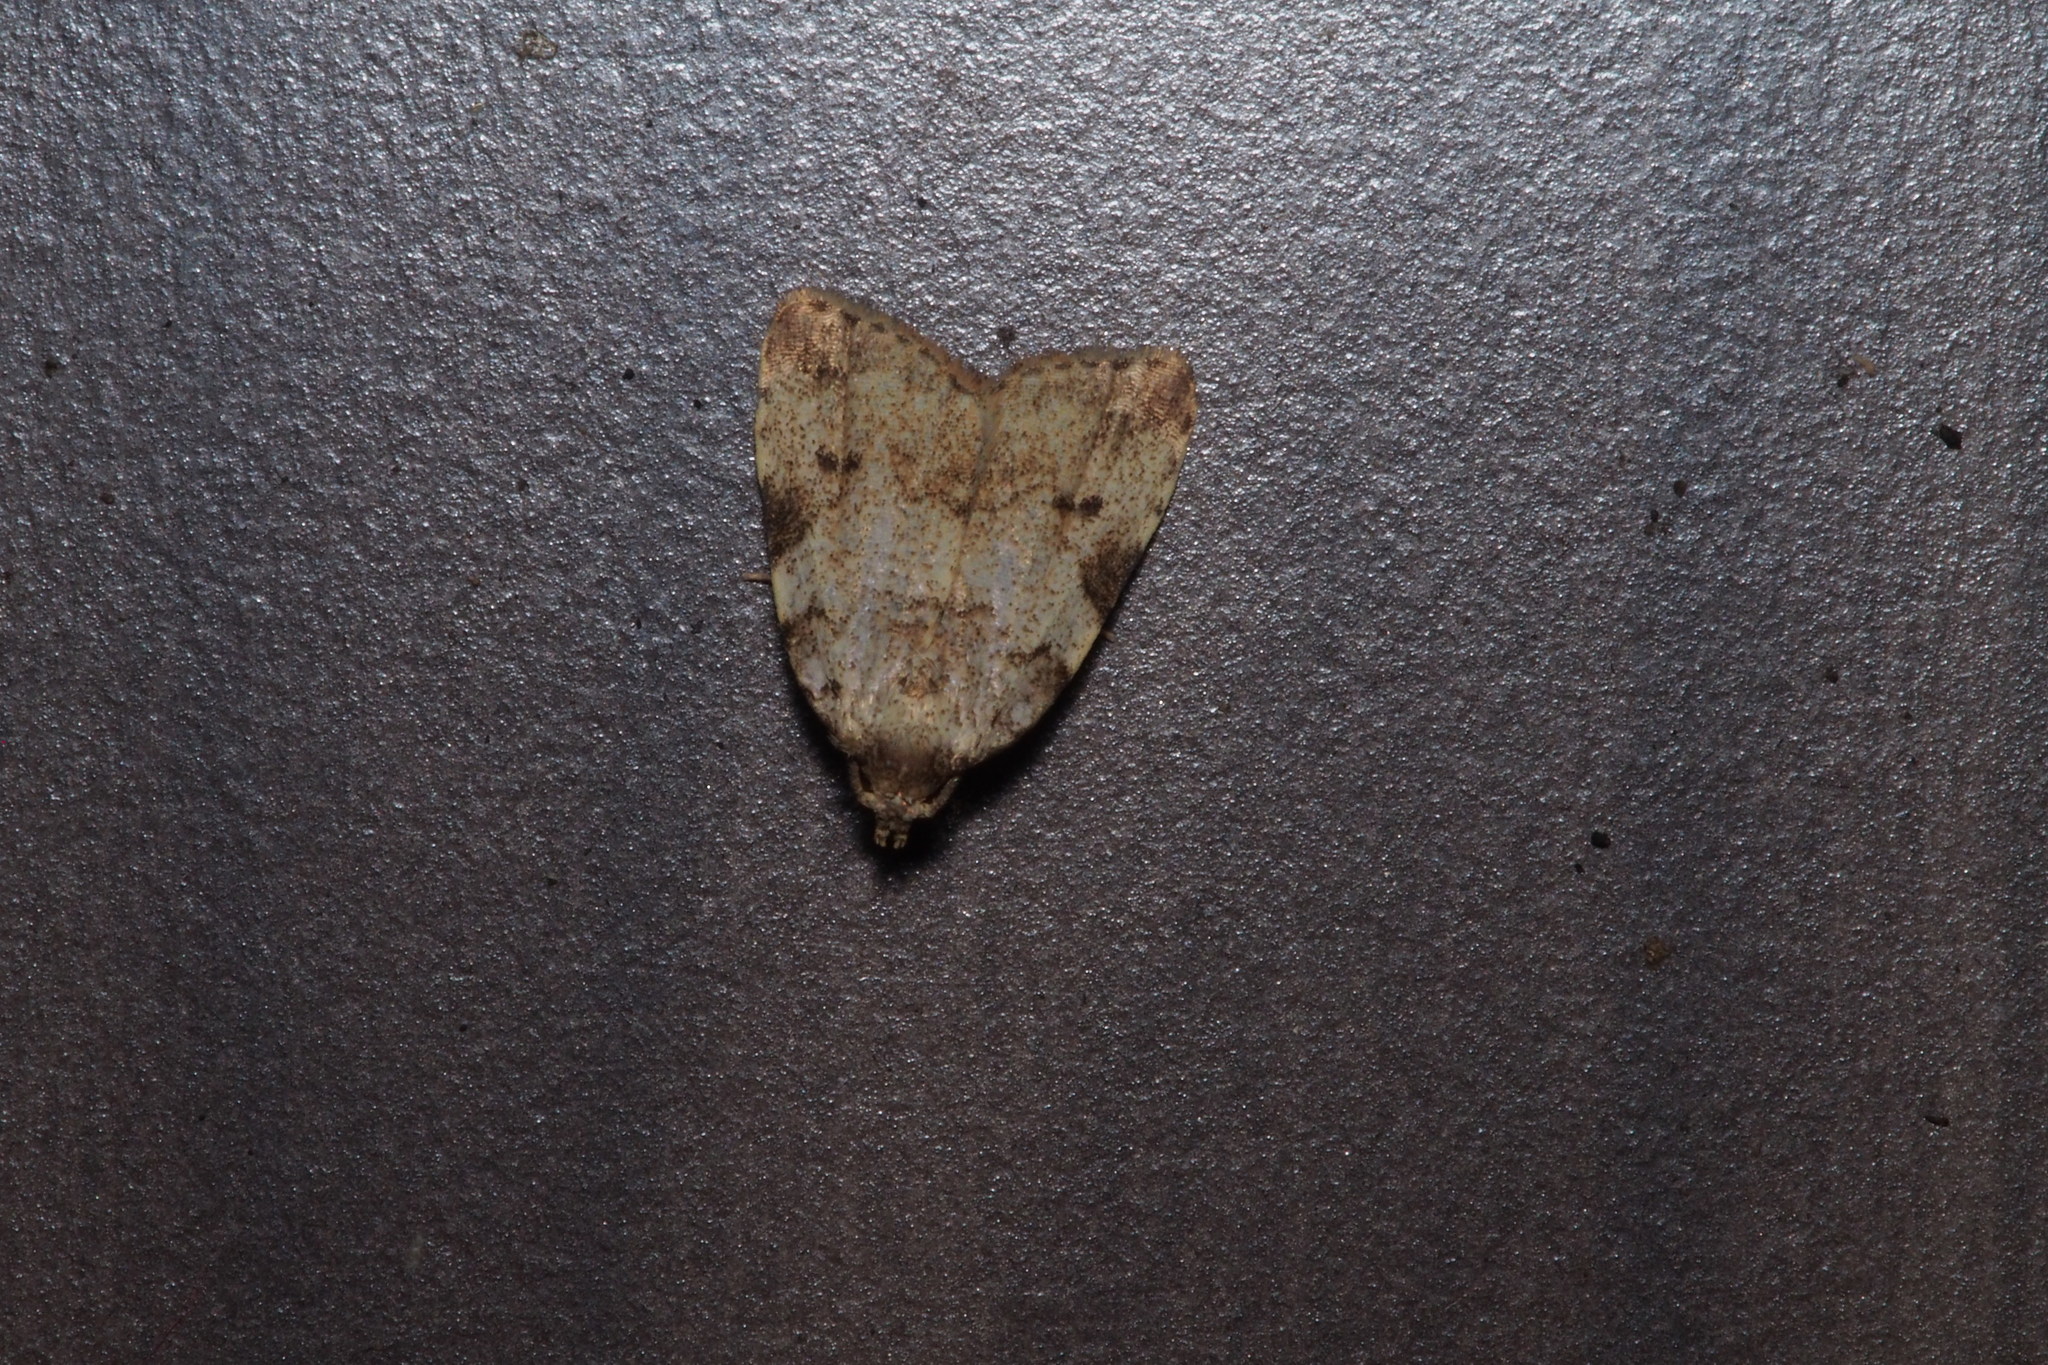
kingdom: Animalia
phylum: Arthropoda
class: Insecta
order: Lepidoptera
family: Erebidae
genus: Neachrostia
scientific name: Neachrostia
